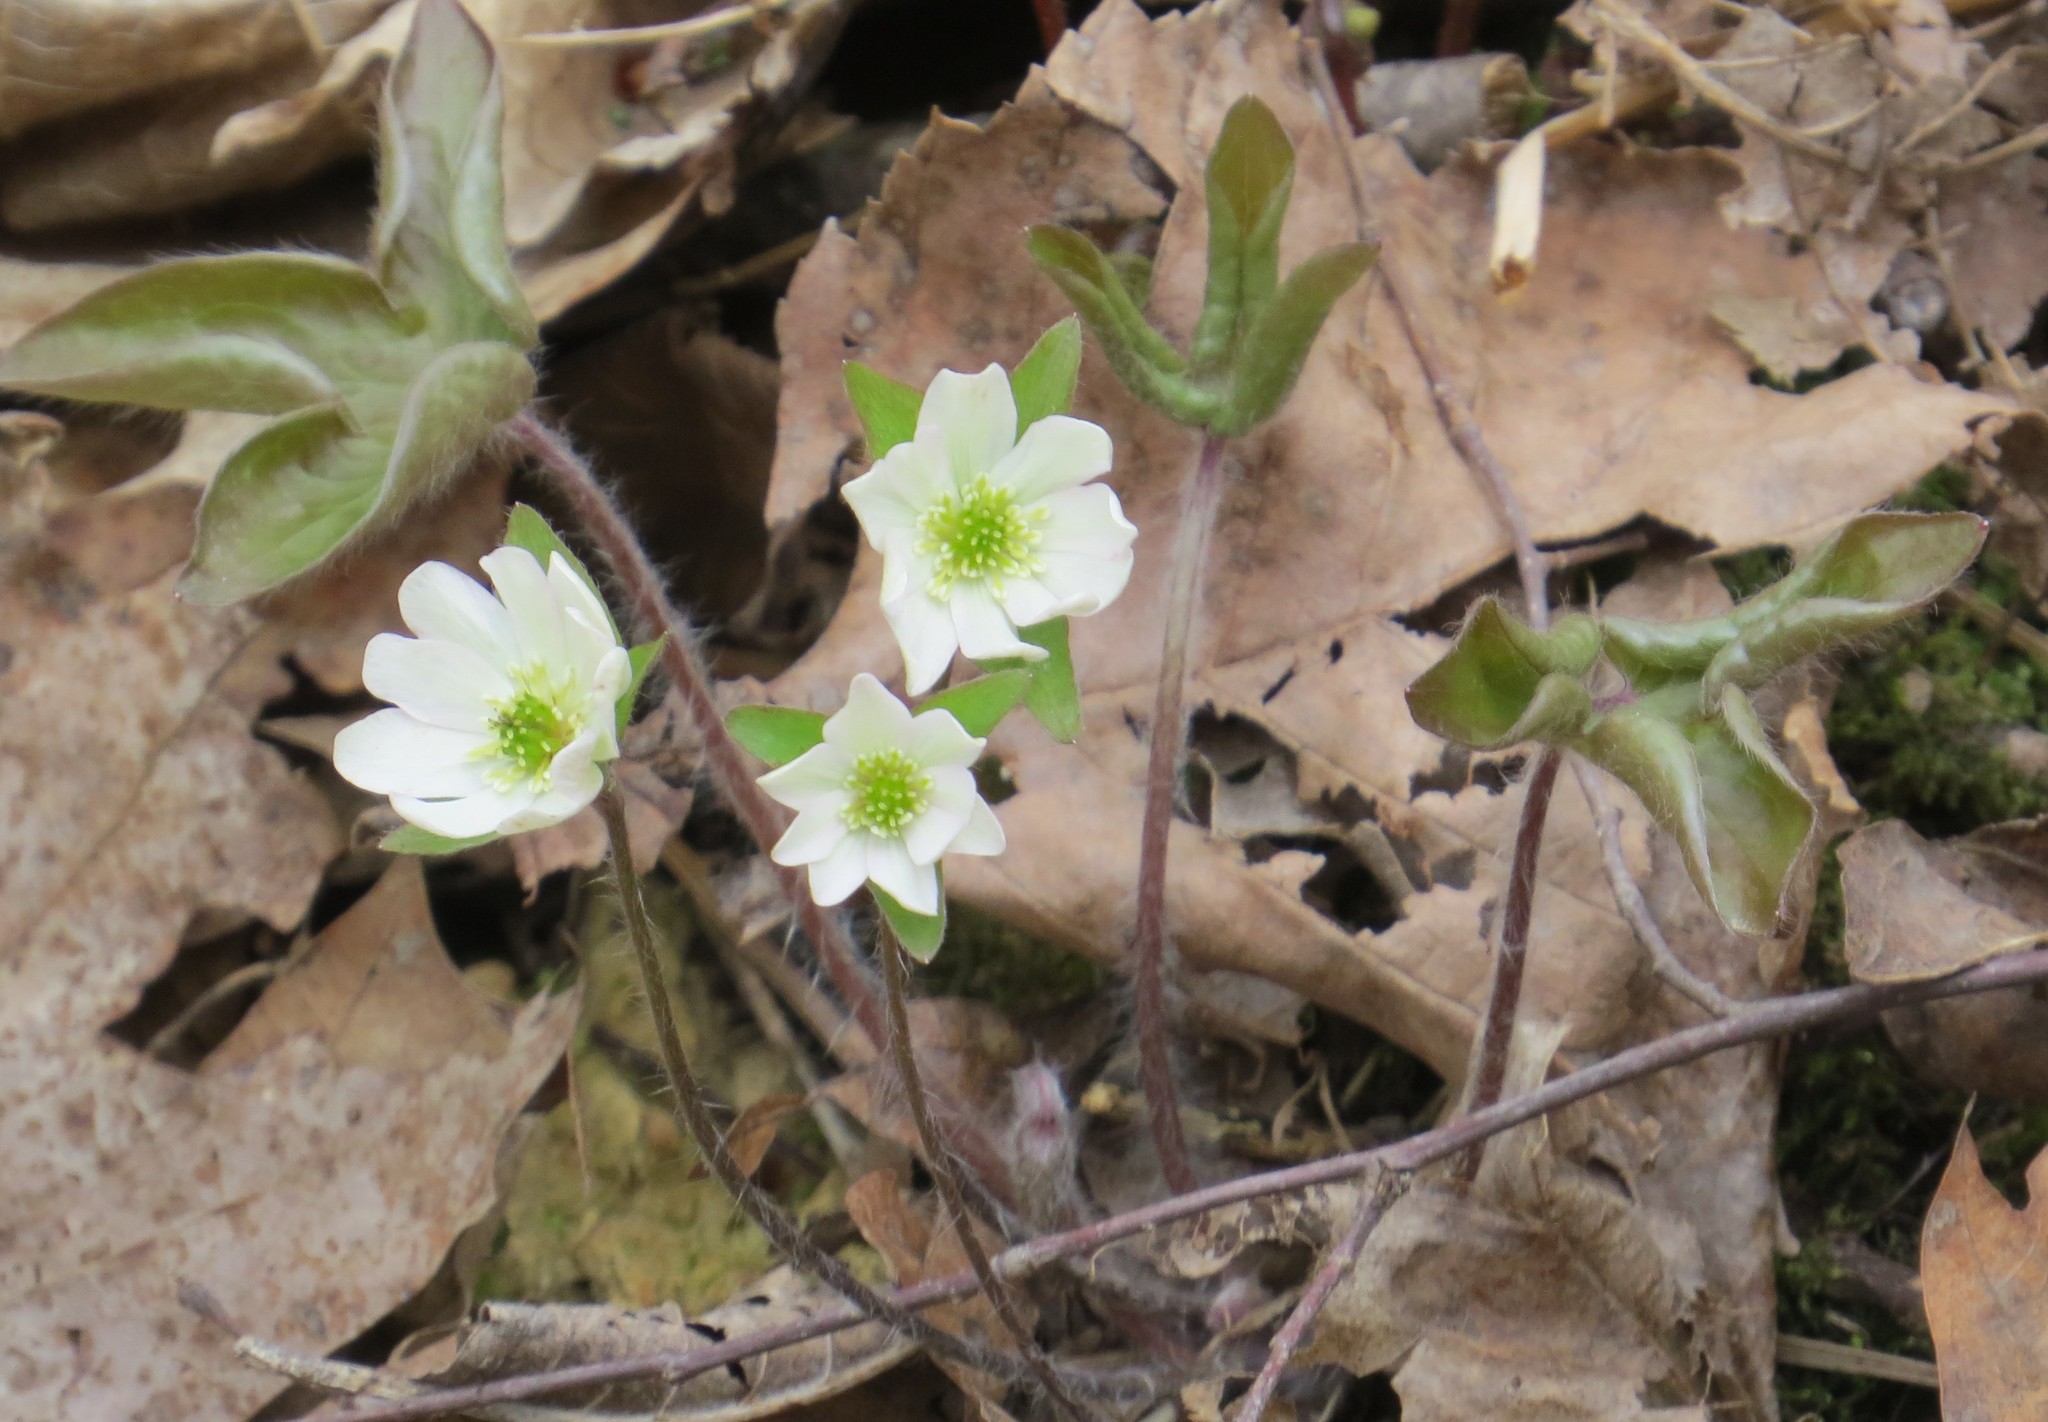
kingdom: Plantae
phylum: Tracheophyta
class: Magnoliopsida
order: Ranunculales
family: Ranunculaceae
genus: Hepatica
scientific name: Hepatica acutiloba
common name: Sharp-lobed hepatica
